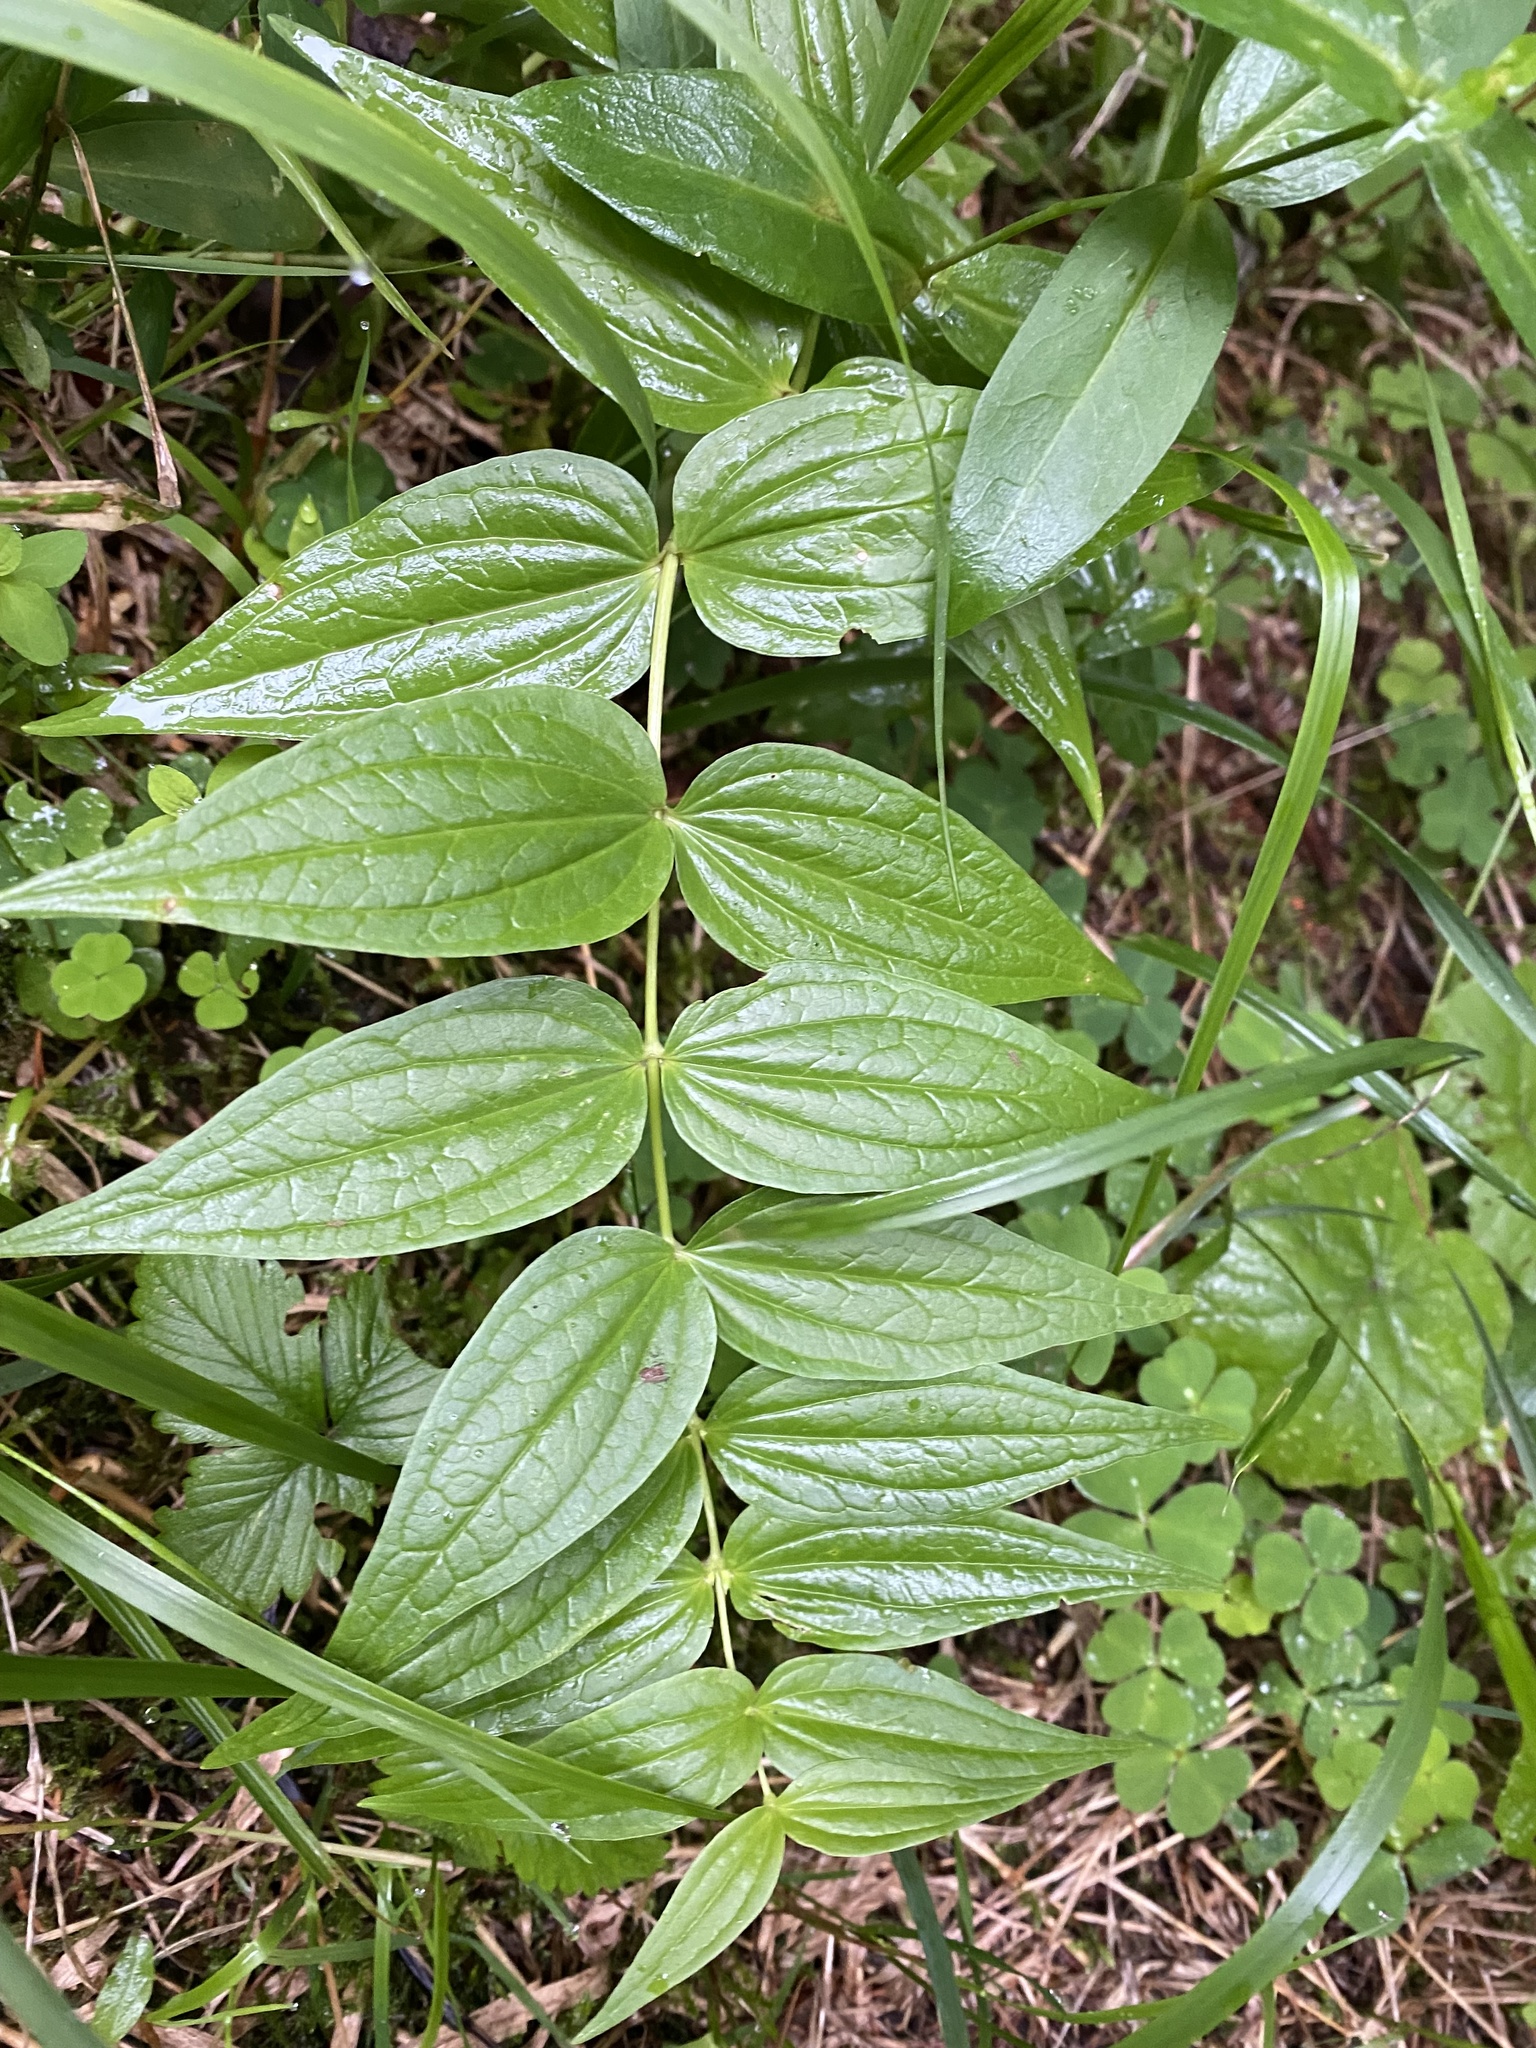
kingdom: Plantae
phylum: Tracheophyta
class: Magnoliopsida
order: Gentianales
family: Gentianaceae
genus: Gentiana
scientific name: Gentiana asclepiadea
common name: Willow gentian
